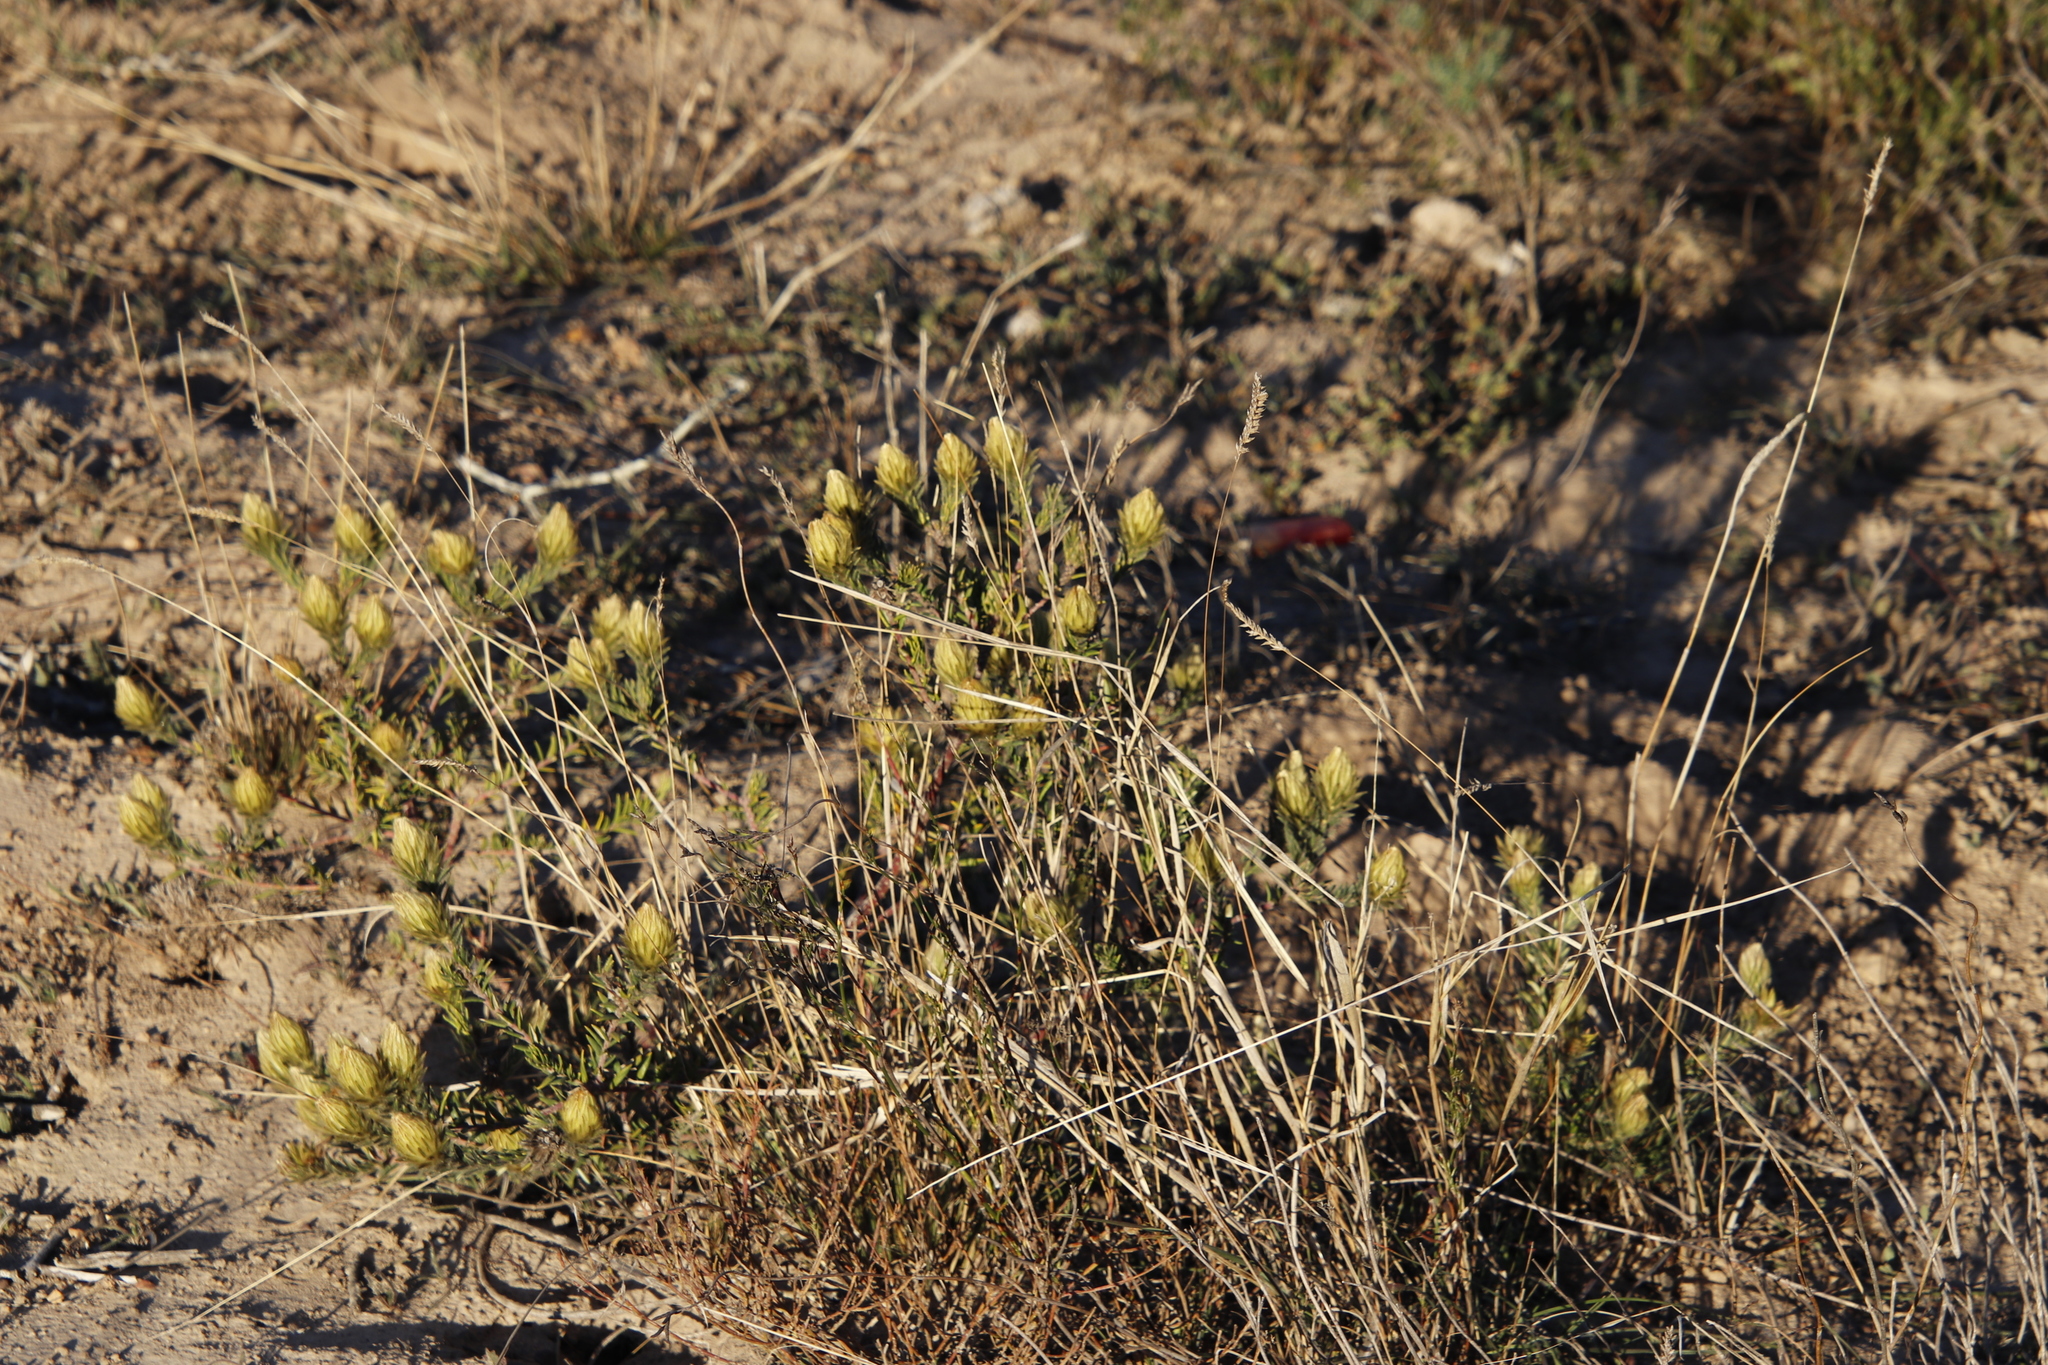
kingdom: Plantae
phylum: Tracheophyta
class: Magnoliopsida
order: Rosales
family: Rhamnaceae
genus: Phylica
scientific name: Phylica plumosa
